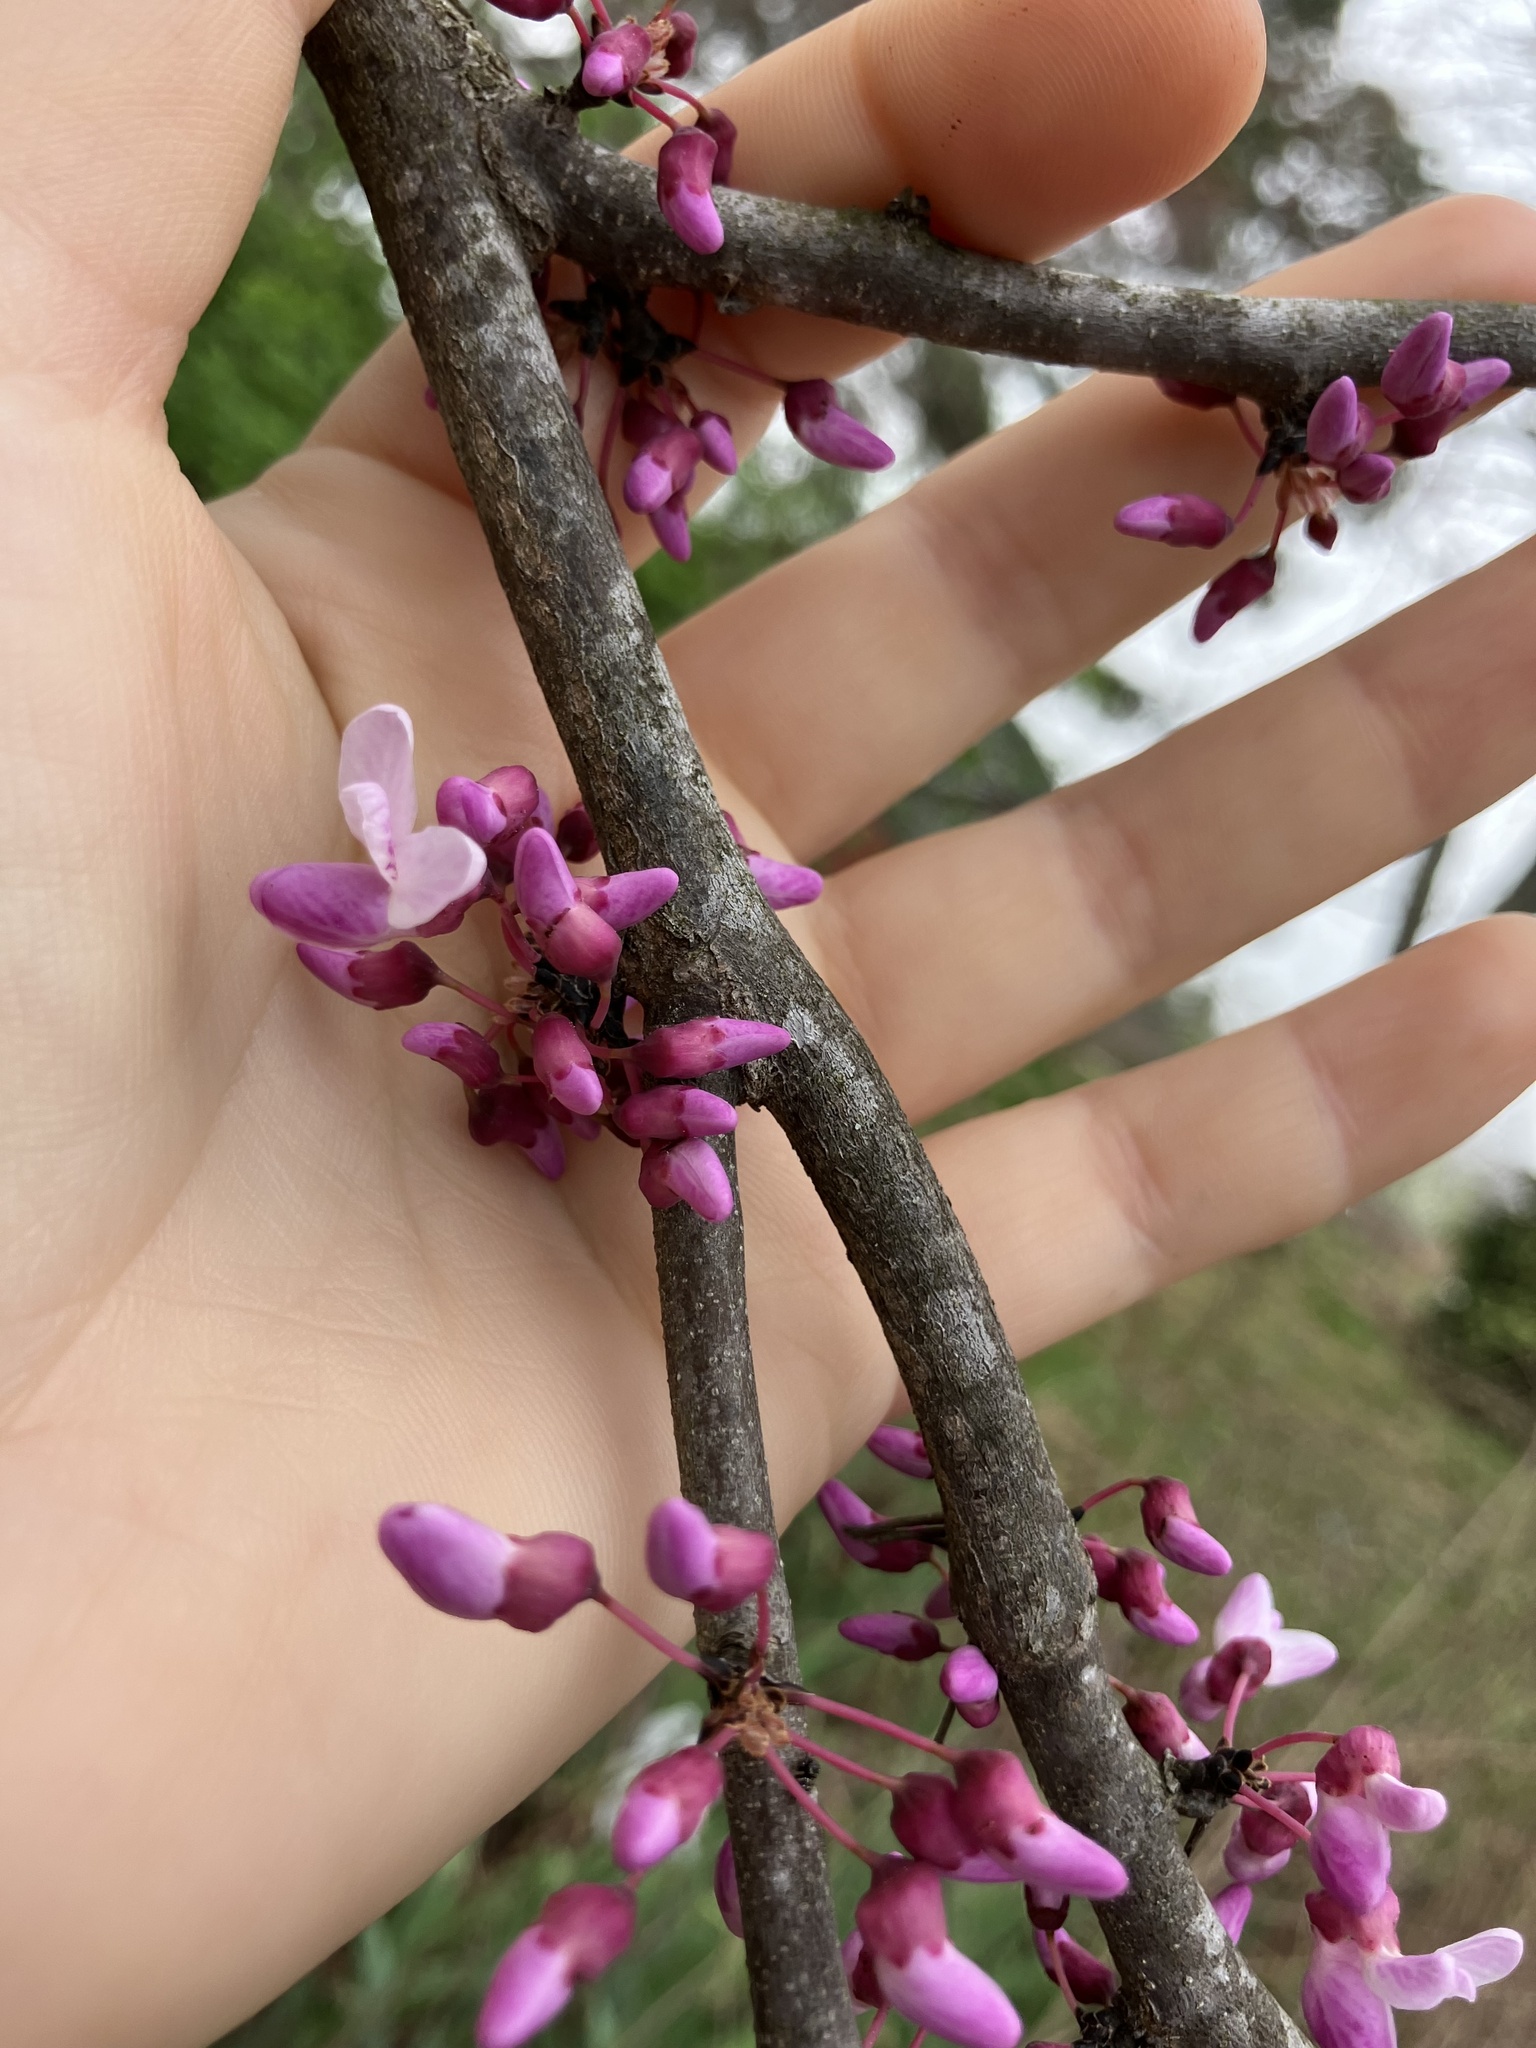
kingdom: Plantae
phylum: Tracheophyta
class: Magnoliopsida
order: Fabales
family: Fabaceae
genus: Cercis
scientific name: Cercis canadensis
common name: Eastern redbud
